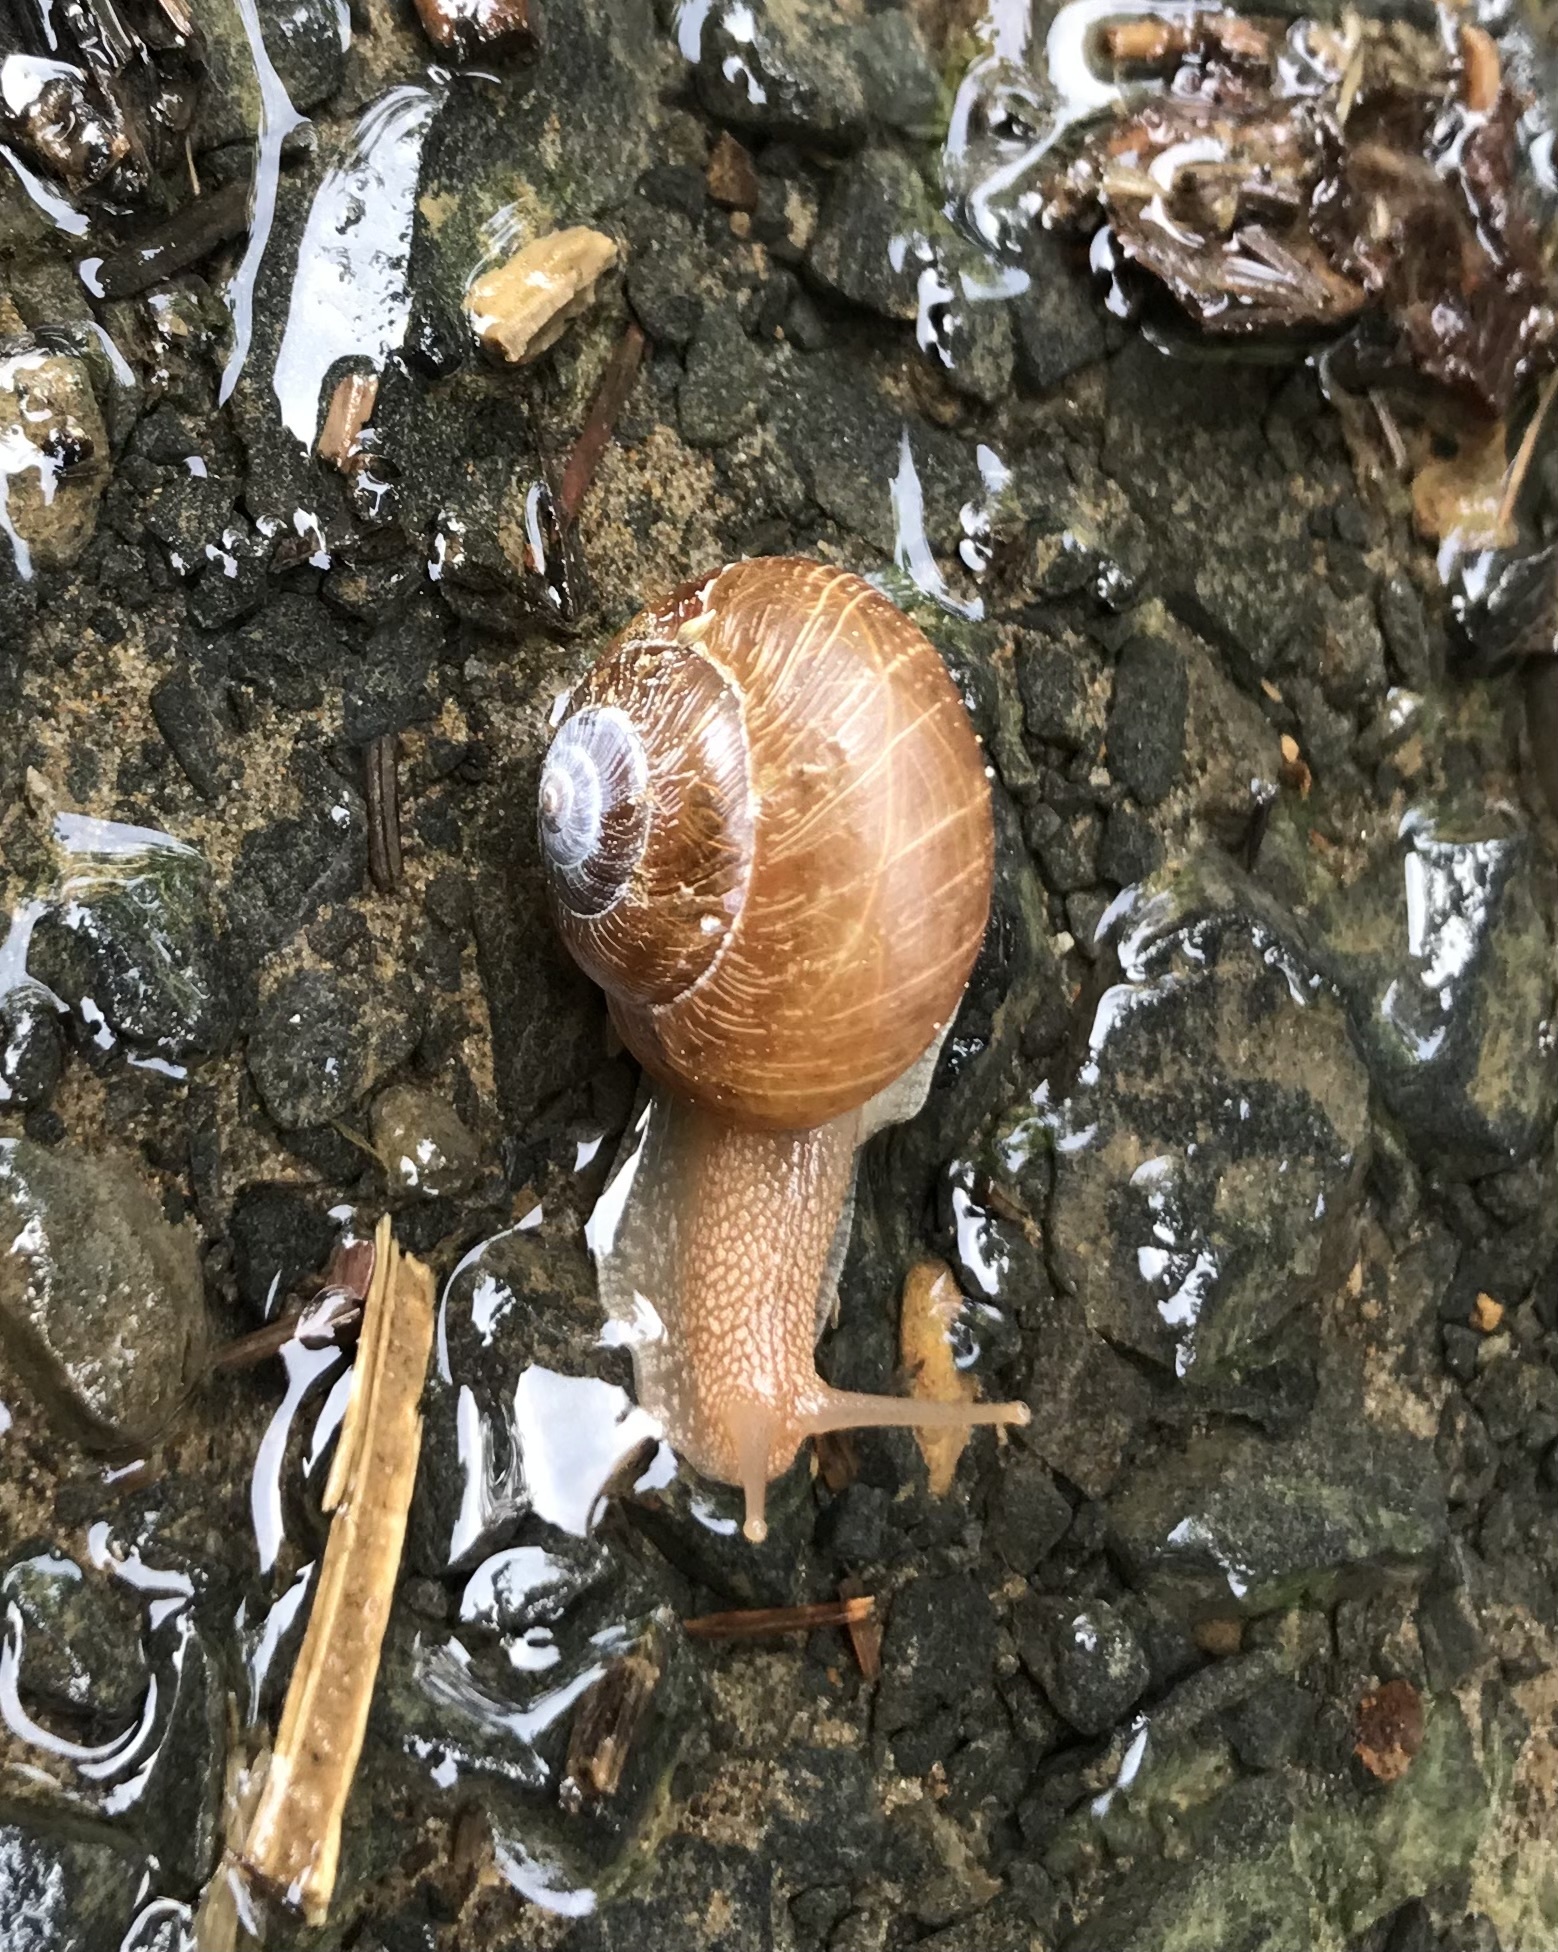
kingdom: Animalia
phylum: Mollusca
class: Gastropoda
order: Stylommatophora
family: Polygyridae
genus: Allogona
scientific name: Allogona townsendiana
